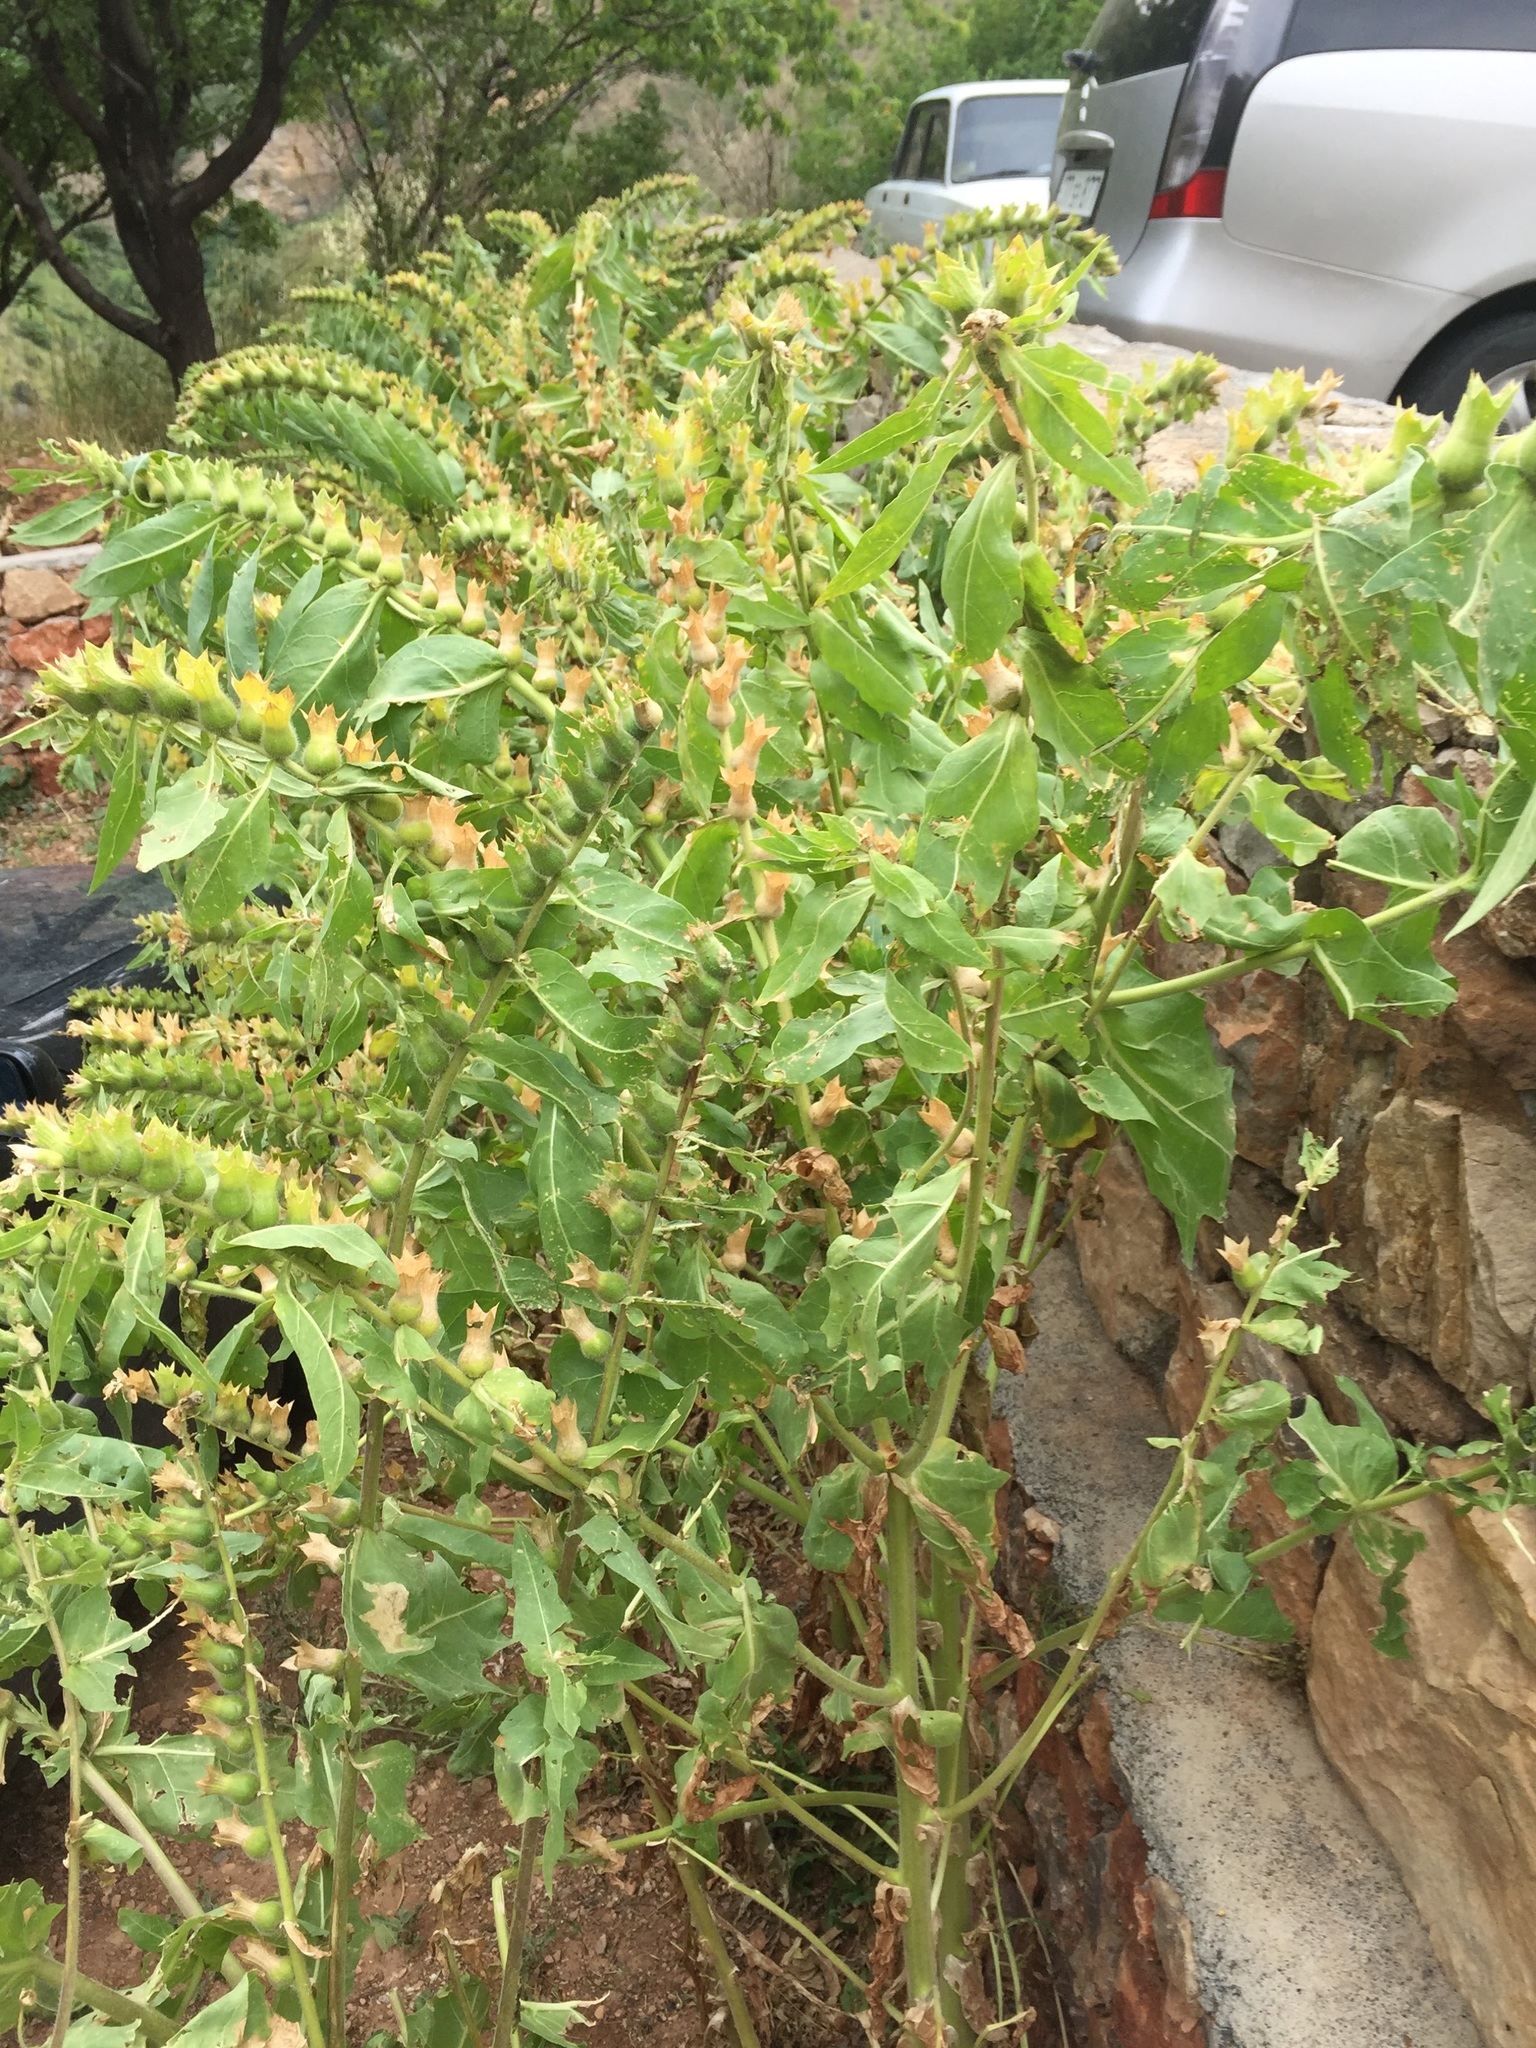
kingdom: Plantae
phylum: Tracheophyta
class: Magnoliopsida
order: Solanales
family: Solanaceae
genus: Hyoscyamus
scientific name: Hyoscyamus niger
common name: Henbane
